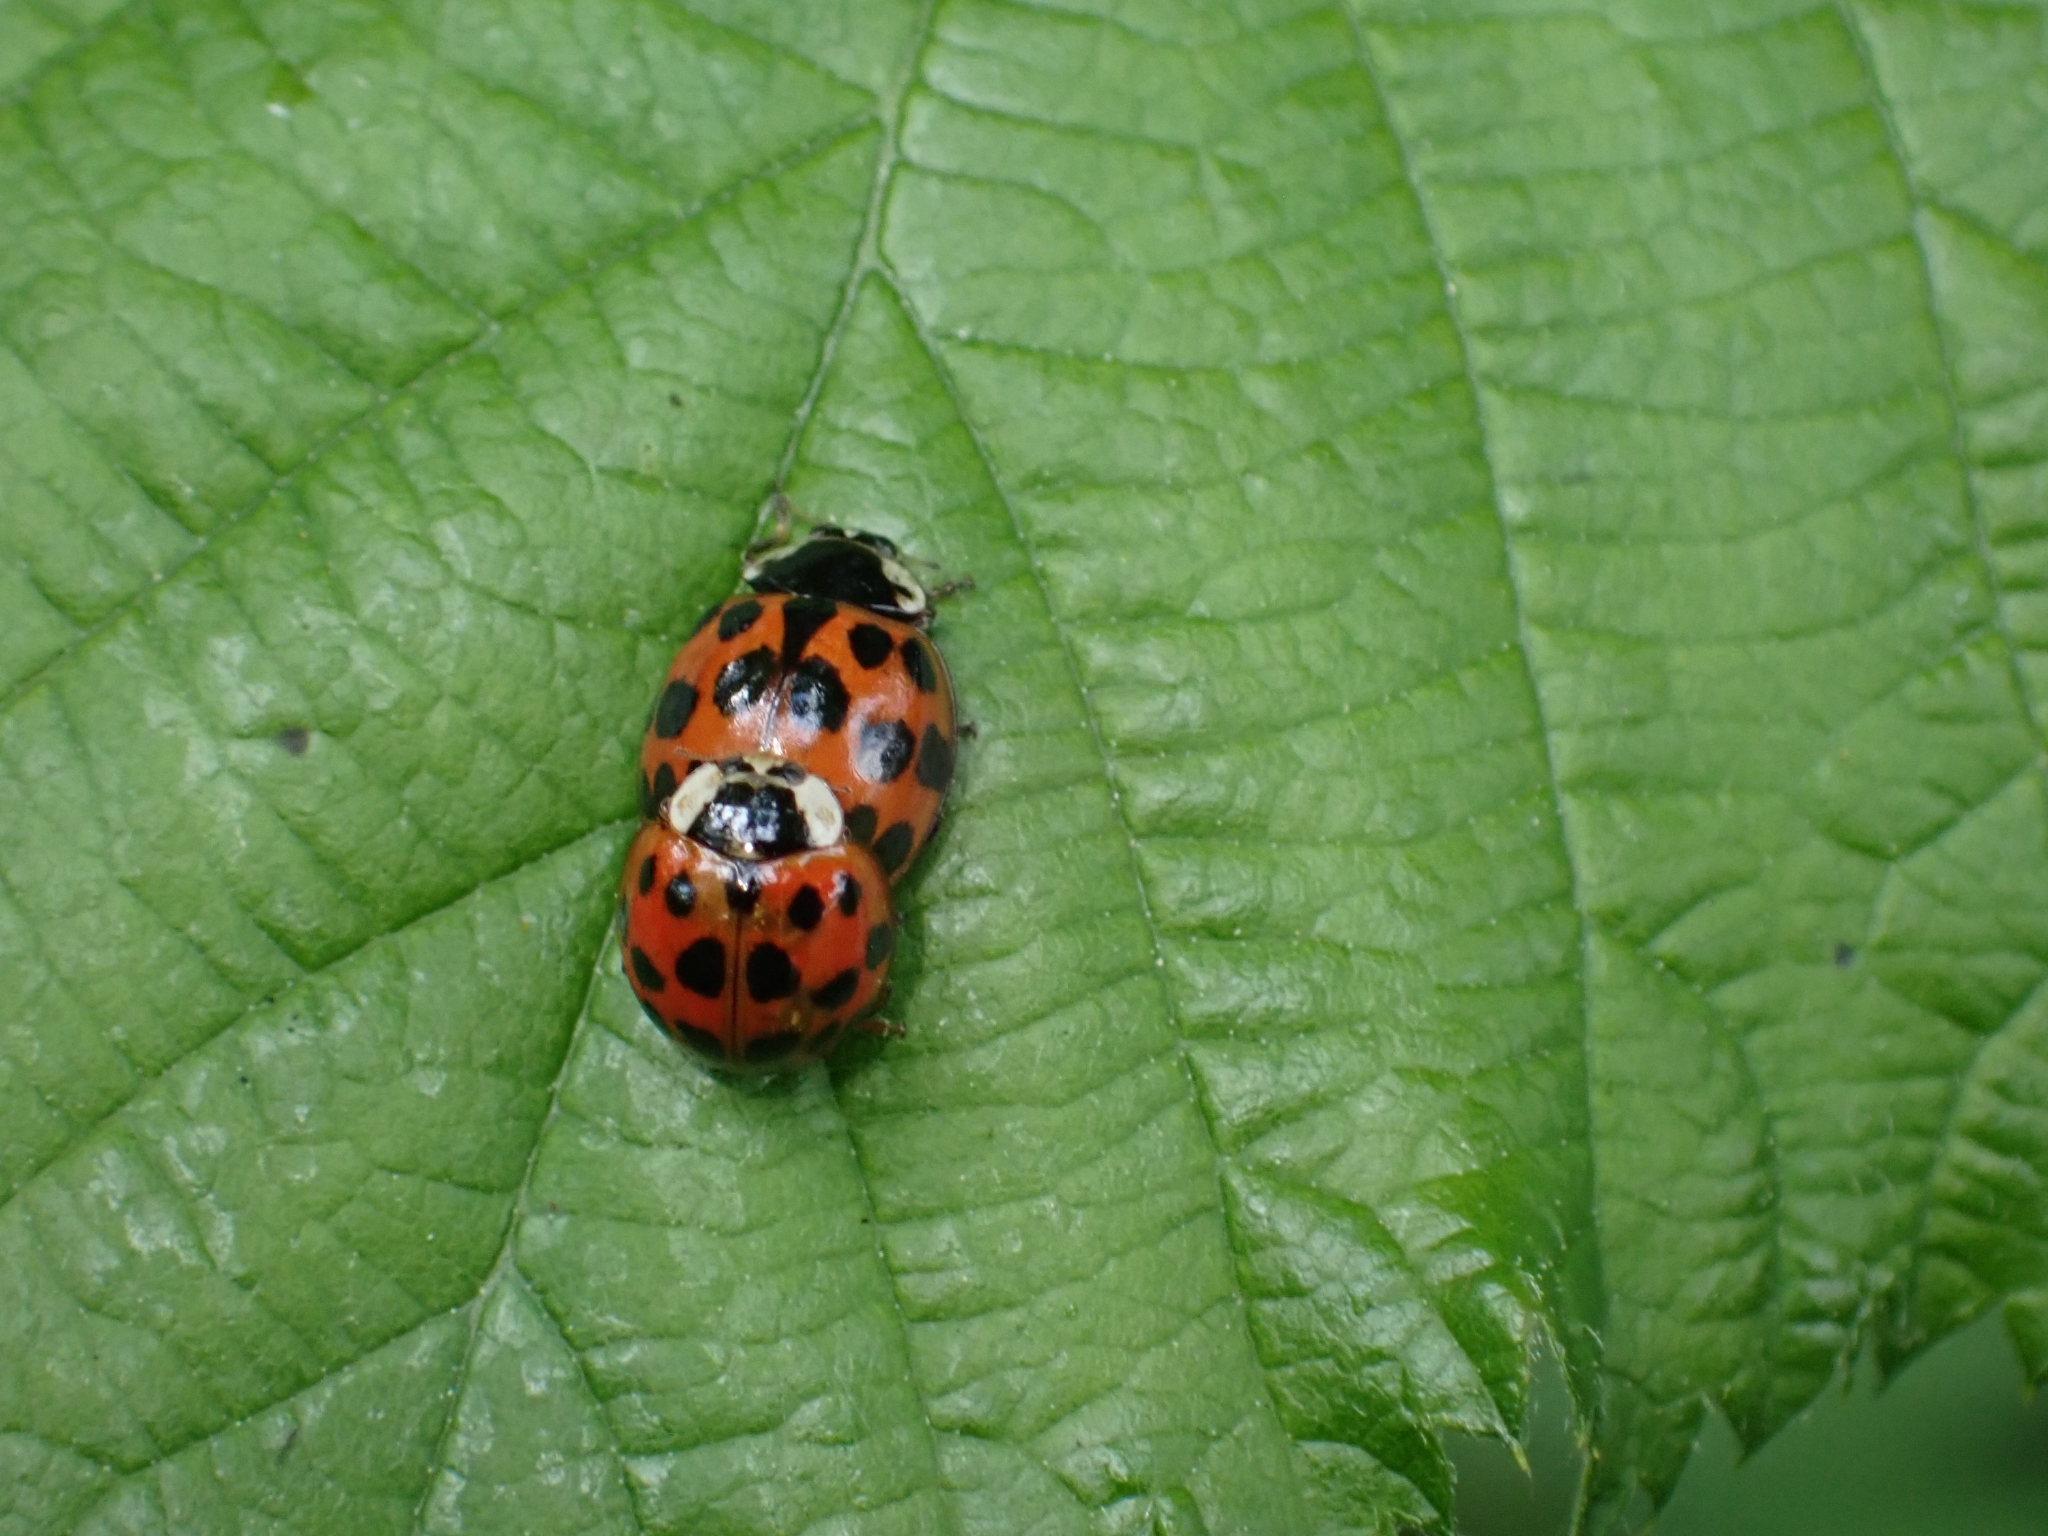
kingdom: Animalia
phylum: Arthropoda
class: Insecta
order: Coleoptera
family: Coccinellidae
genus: Harmonia
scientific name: Harmonia axyridis
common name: Harlequin ladybird
